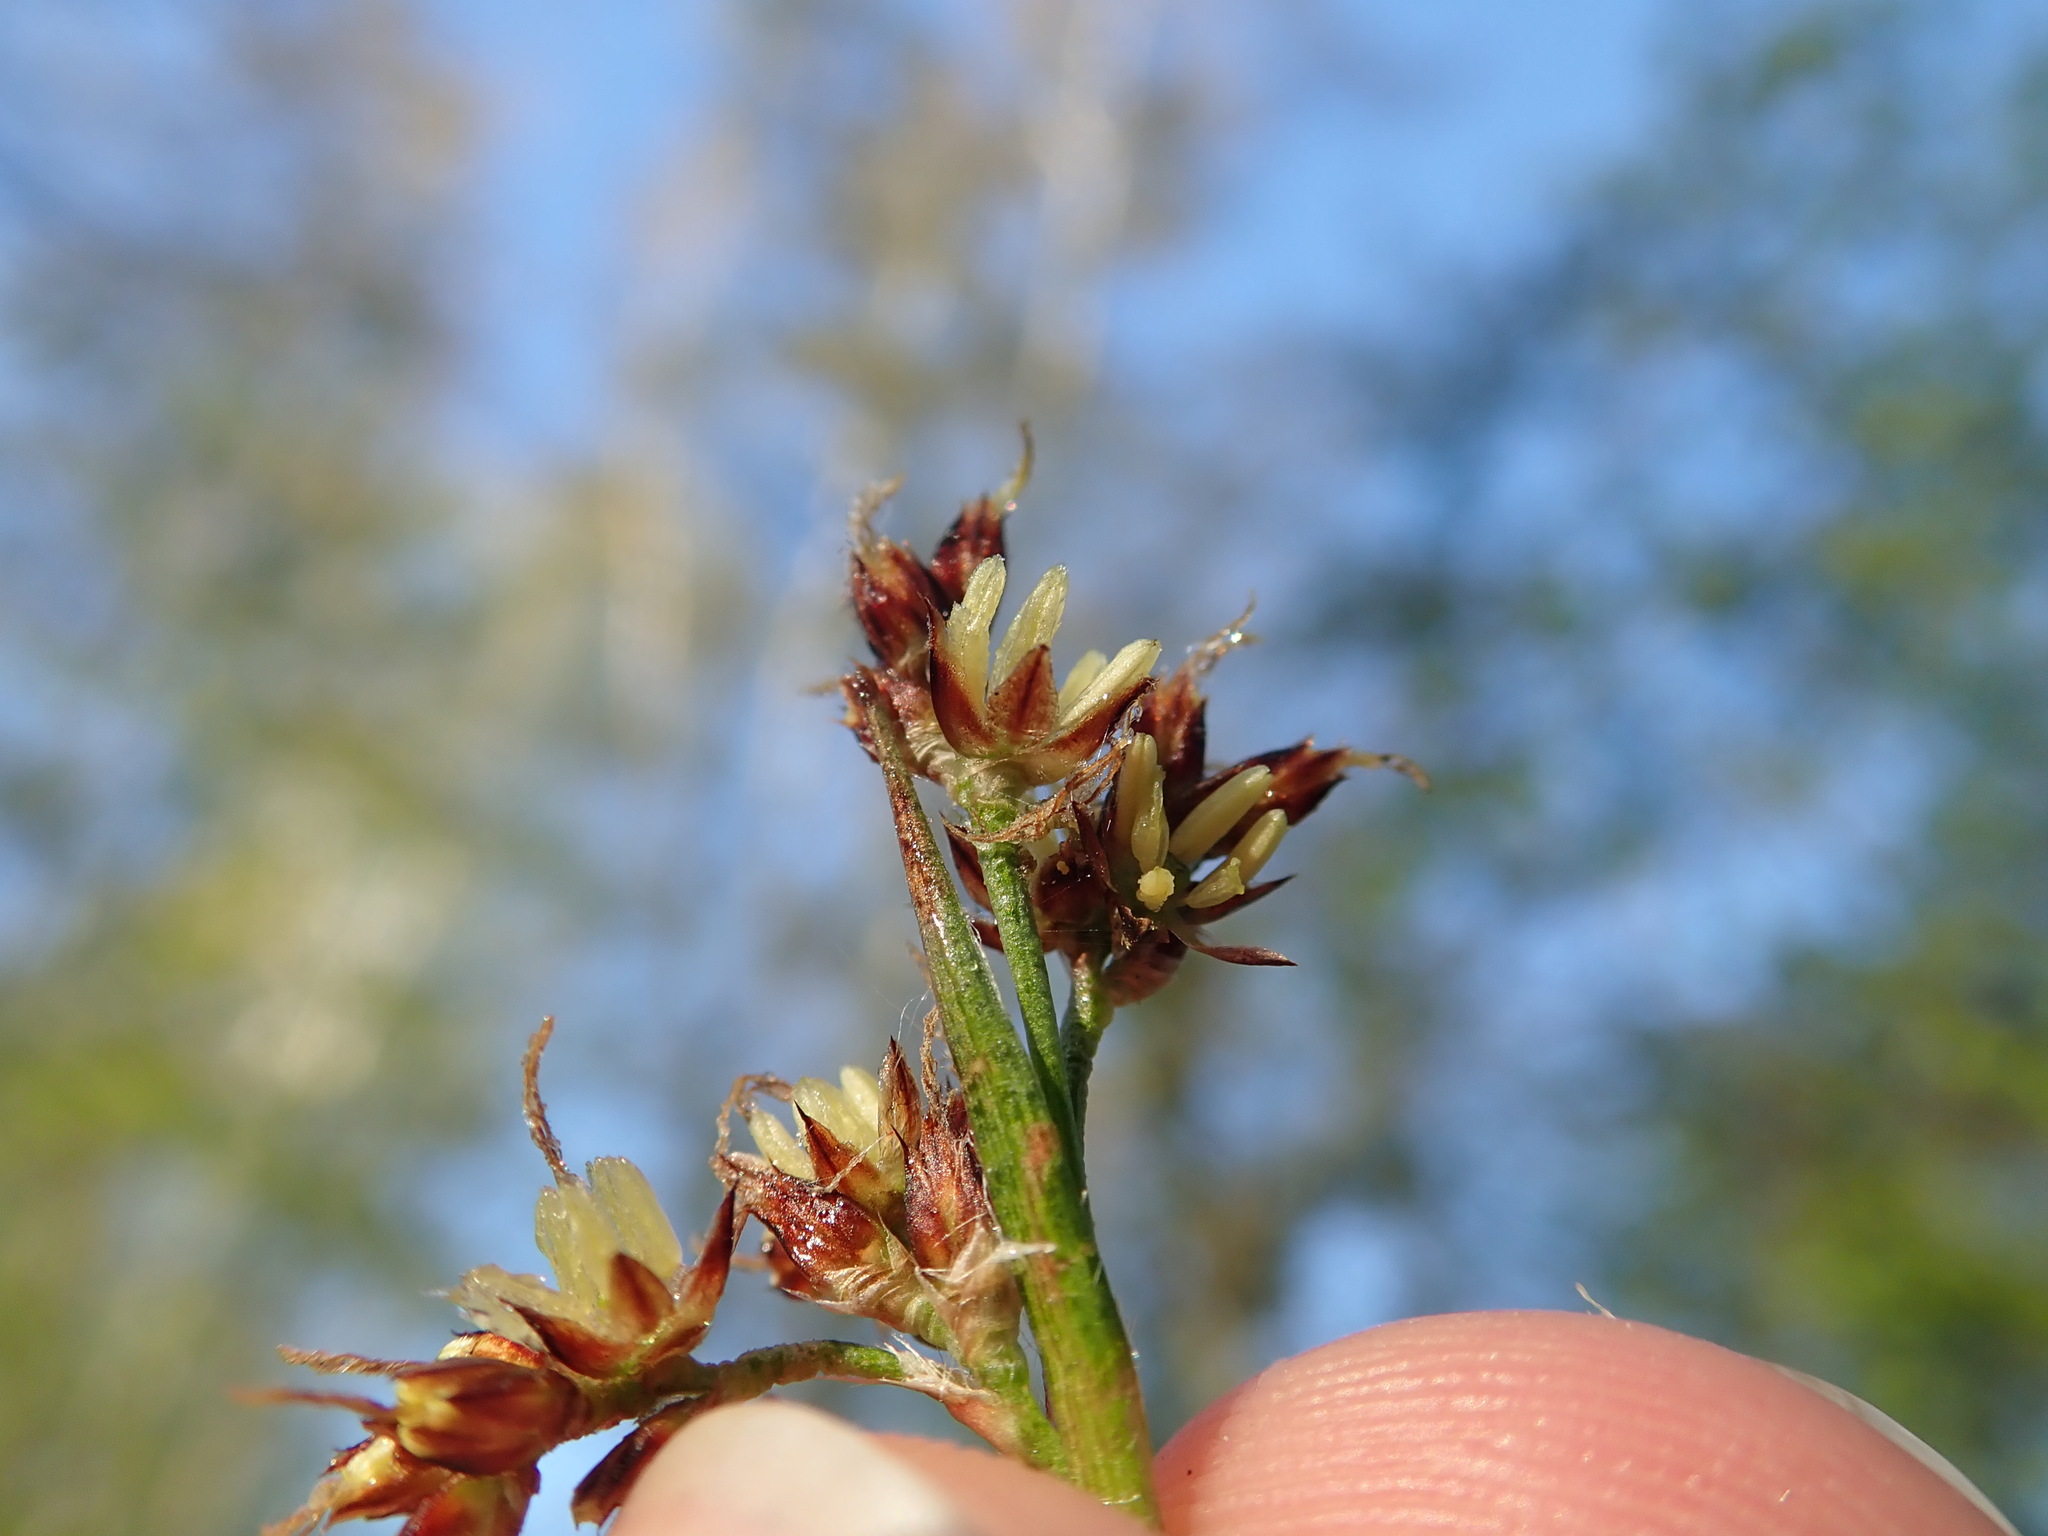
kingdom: Plantae
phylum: Tracheophyta
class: Liliopsida
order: Poales
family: Juncaceae
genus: Luzula
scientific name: Luzula campestris
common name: Field wood-rush
